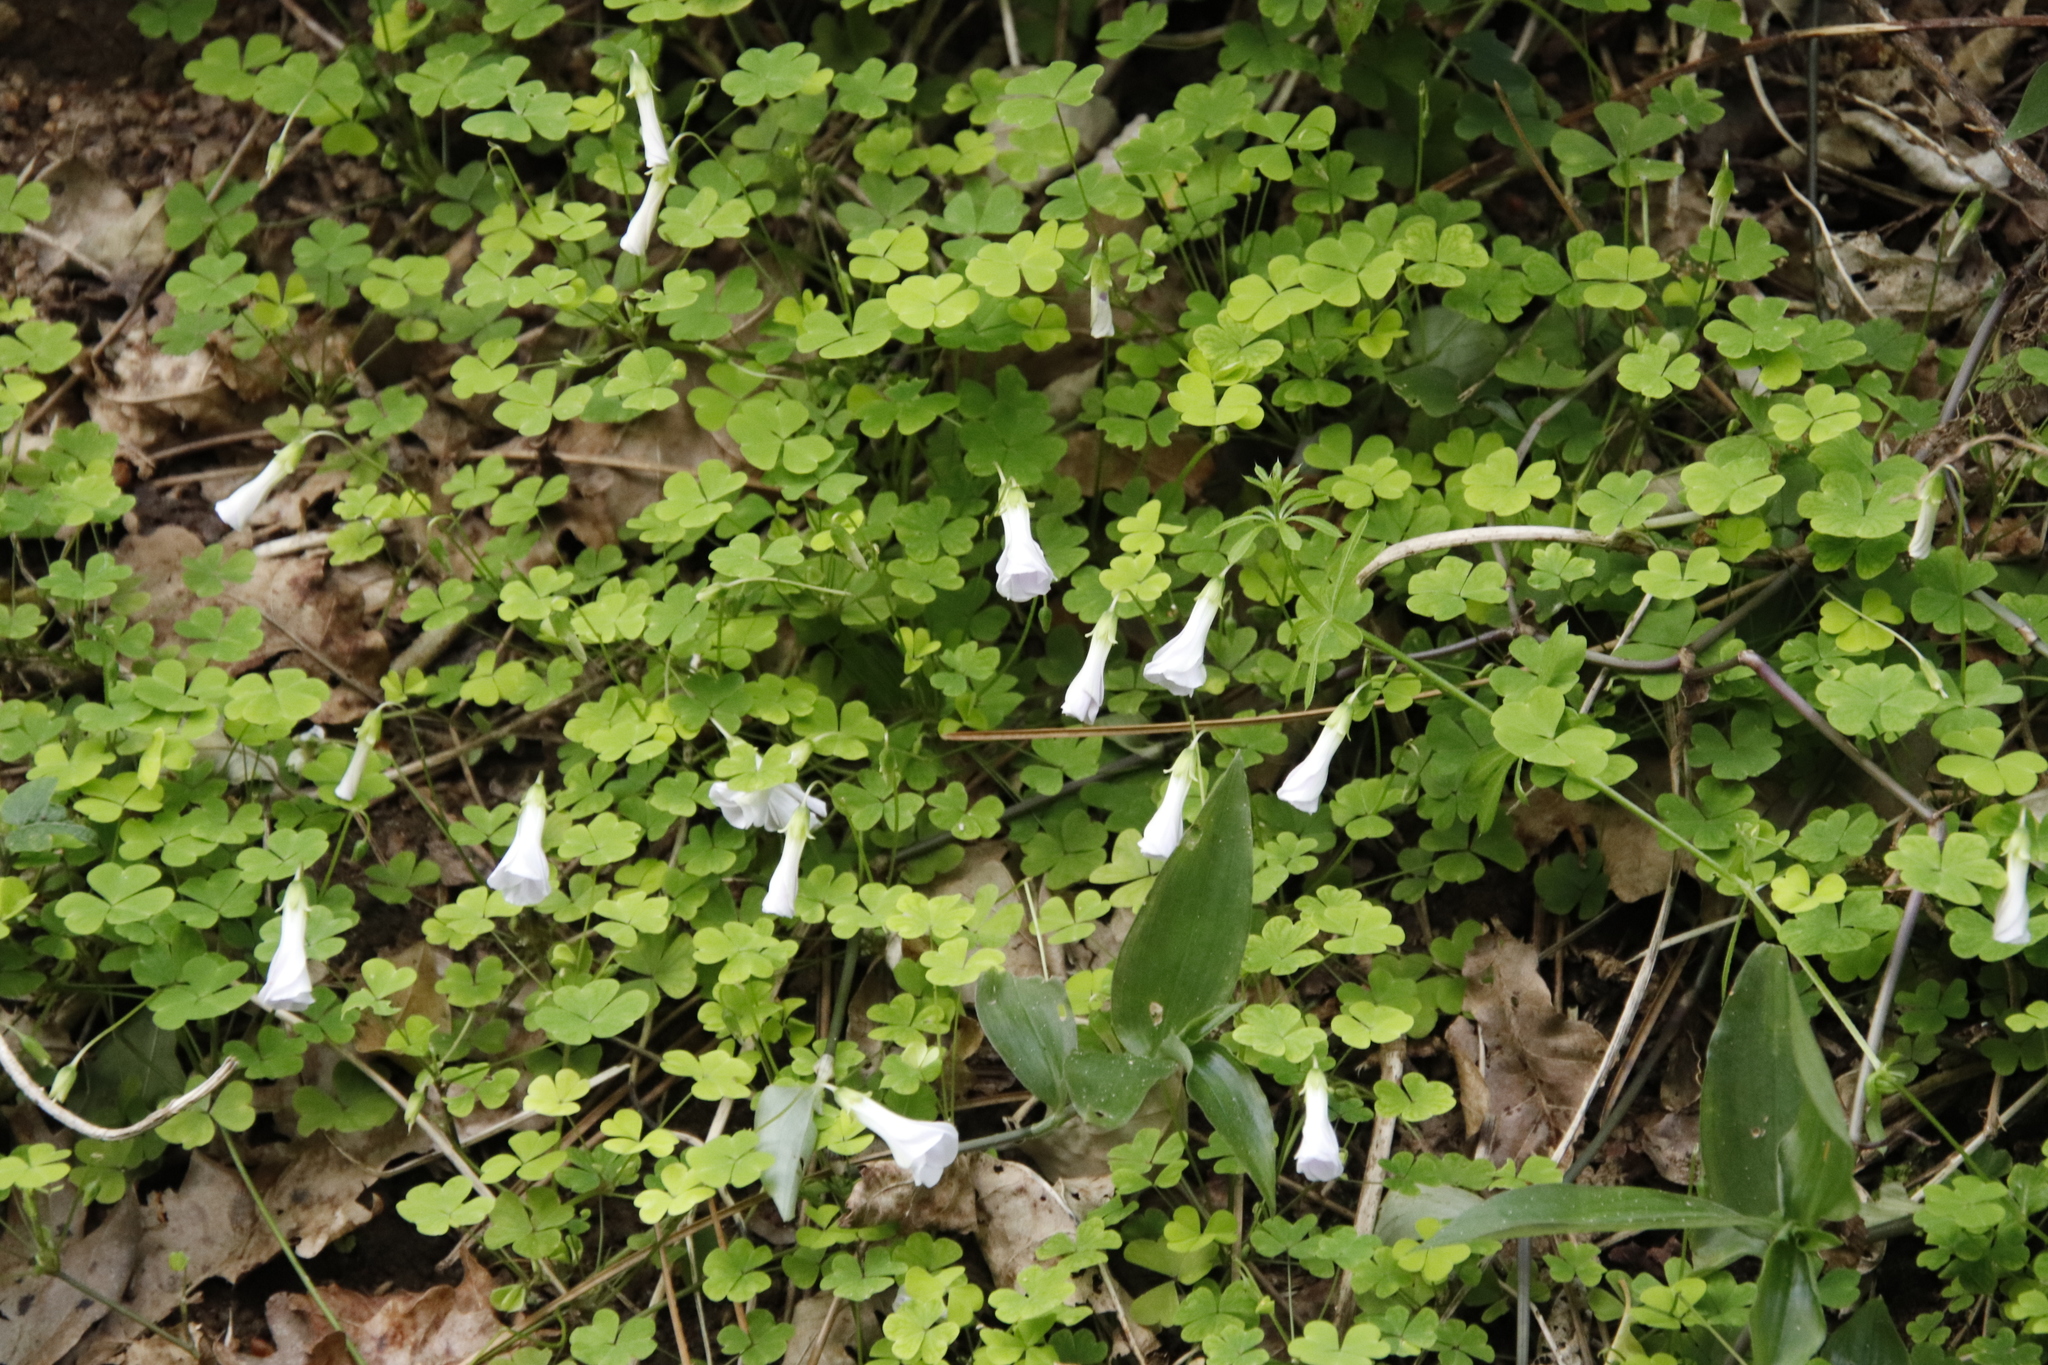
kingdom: Plantae
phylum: Tracheophyta
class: Magnoliopsida
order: Oxalidales
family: Oxalidaceae
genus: Oxalis
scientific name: Oxalis incarnata
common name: Pale pink-sorrel
